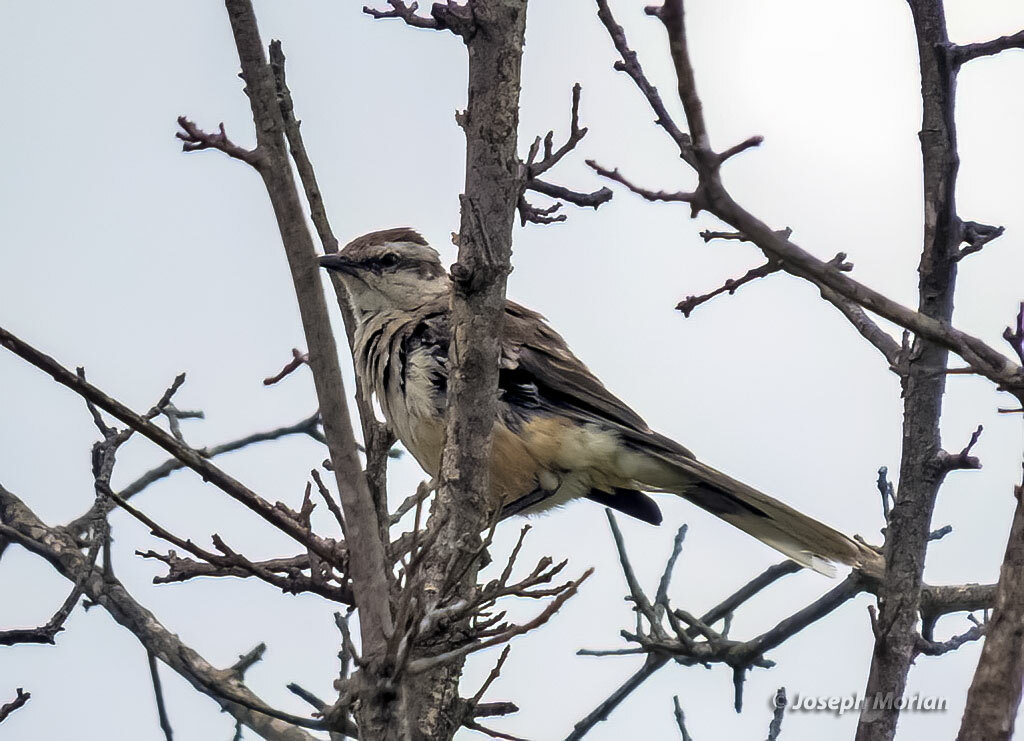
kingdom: Animalia
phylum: Chordata
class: Aves
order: Passeriformes
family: Mimidae
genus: Mimus
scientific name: Mimus saturninus
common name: Chalk-browed mockingbird
